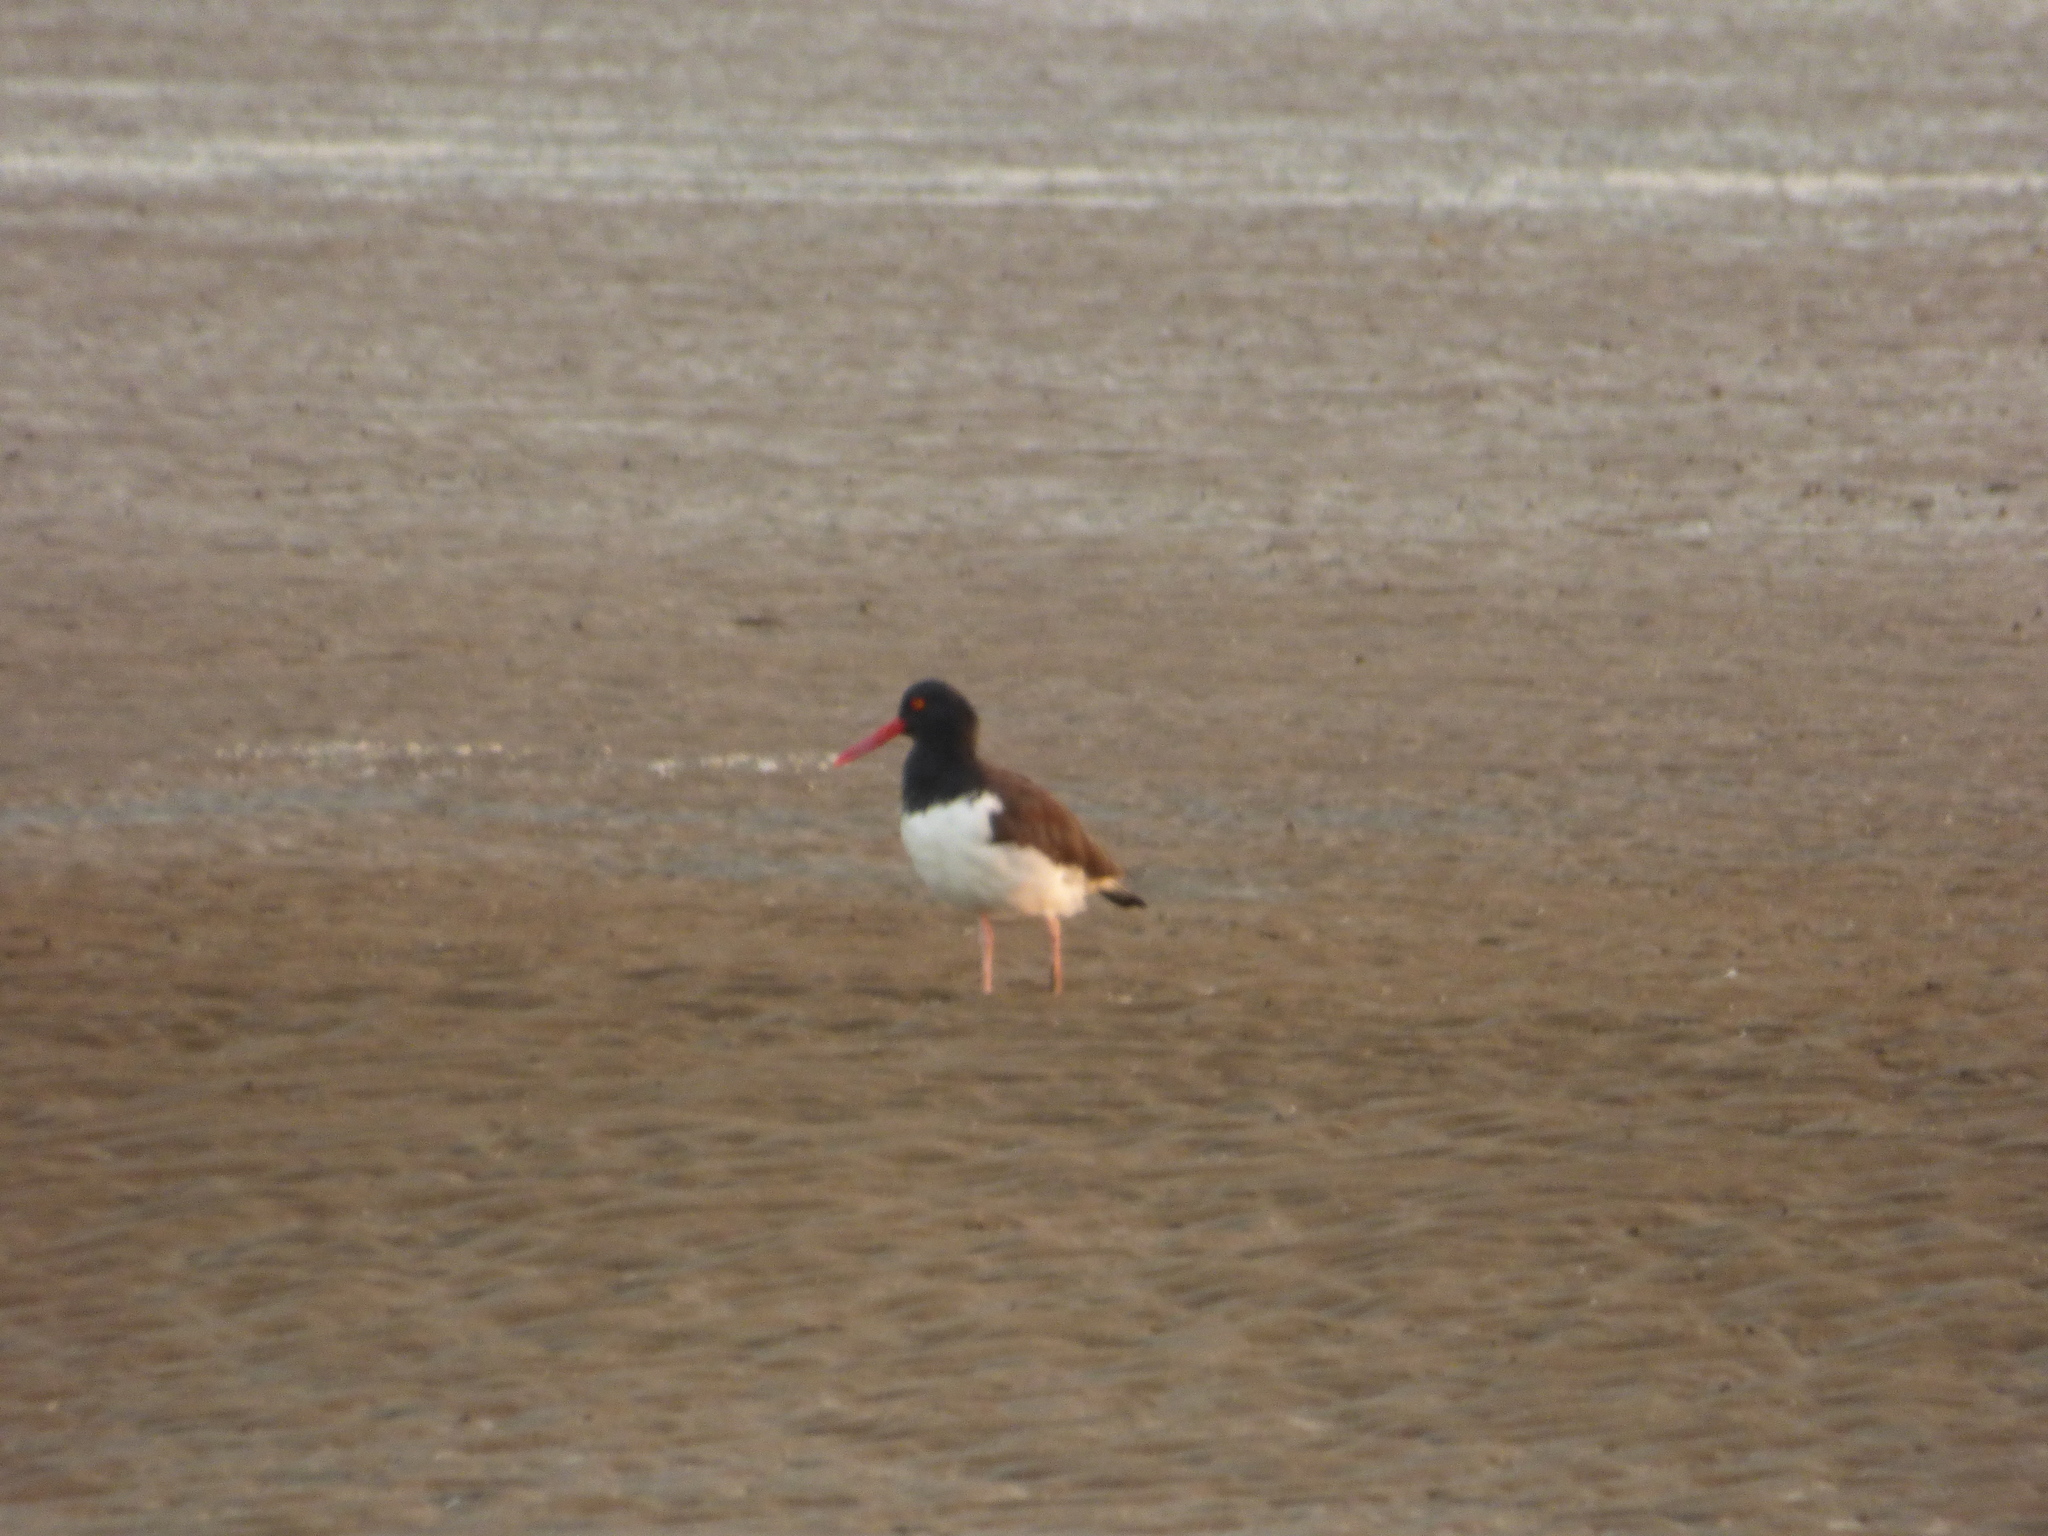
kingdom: Animalia
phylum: Chordata
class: Aves
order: Charadriiformes
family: Haematopodidae
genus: Haematopus
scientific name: Haematopus palliatus
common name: American oystercatcher
